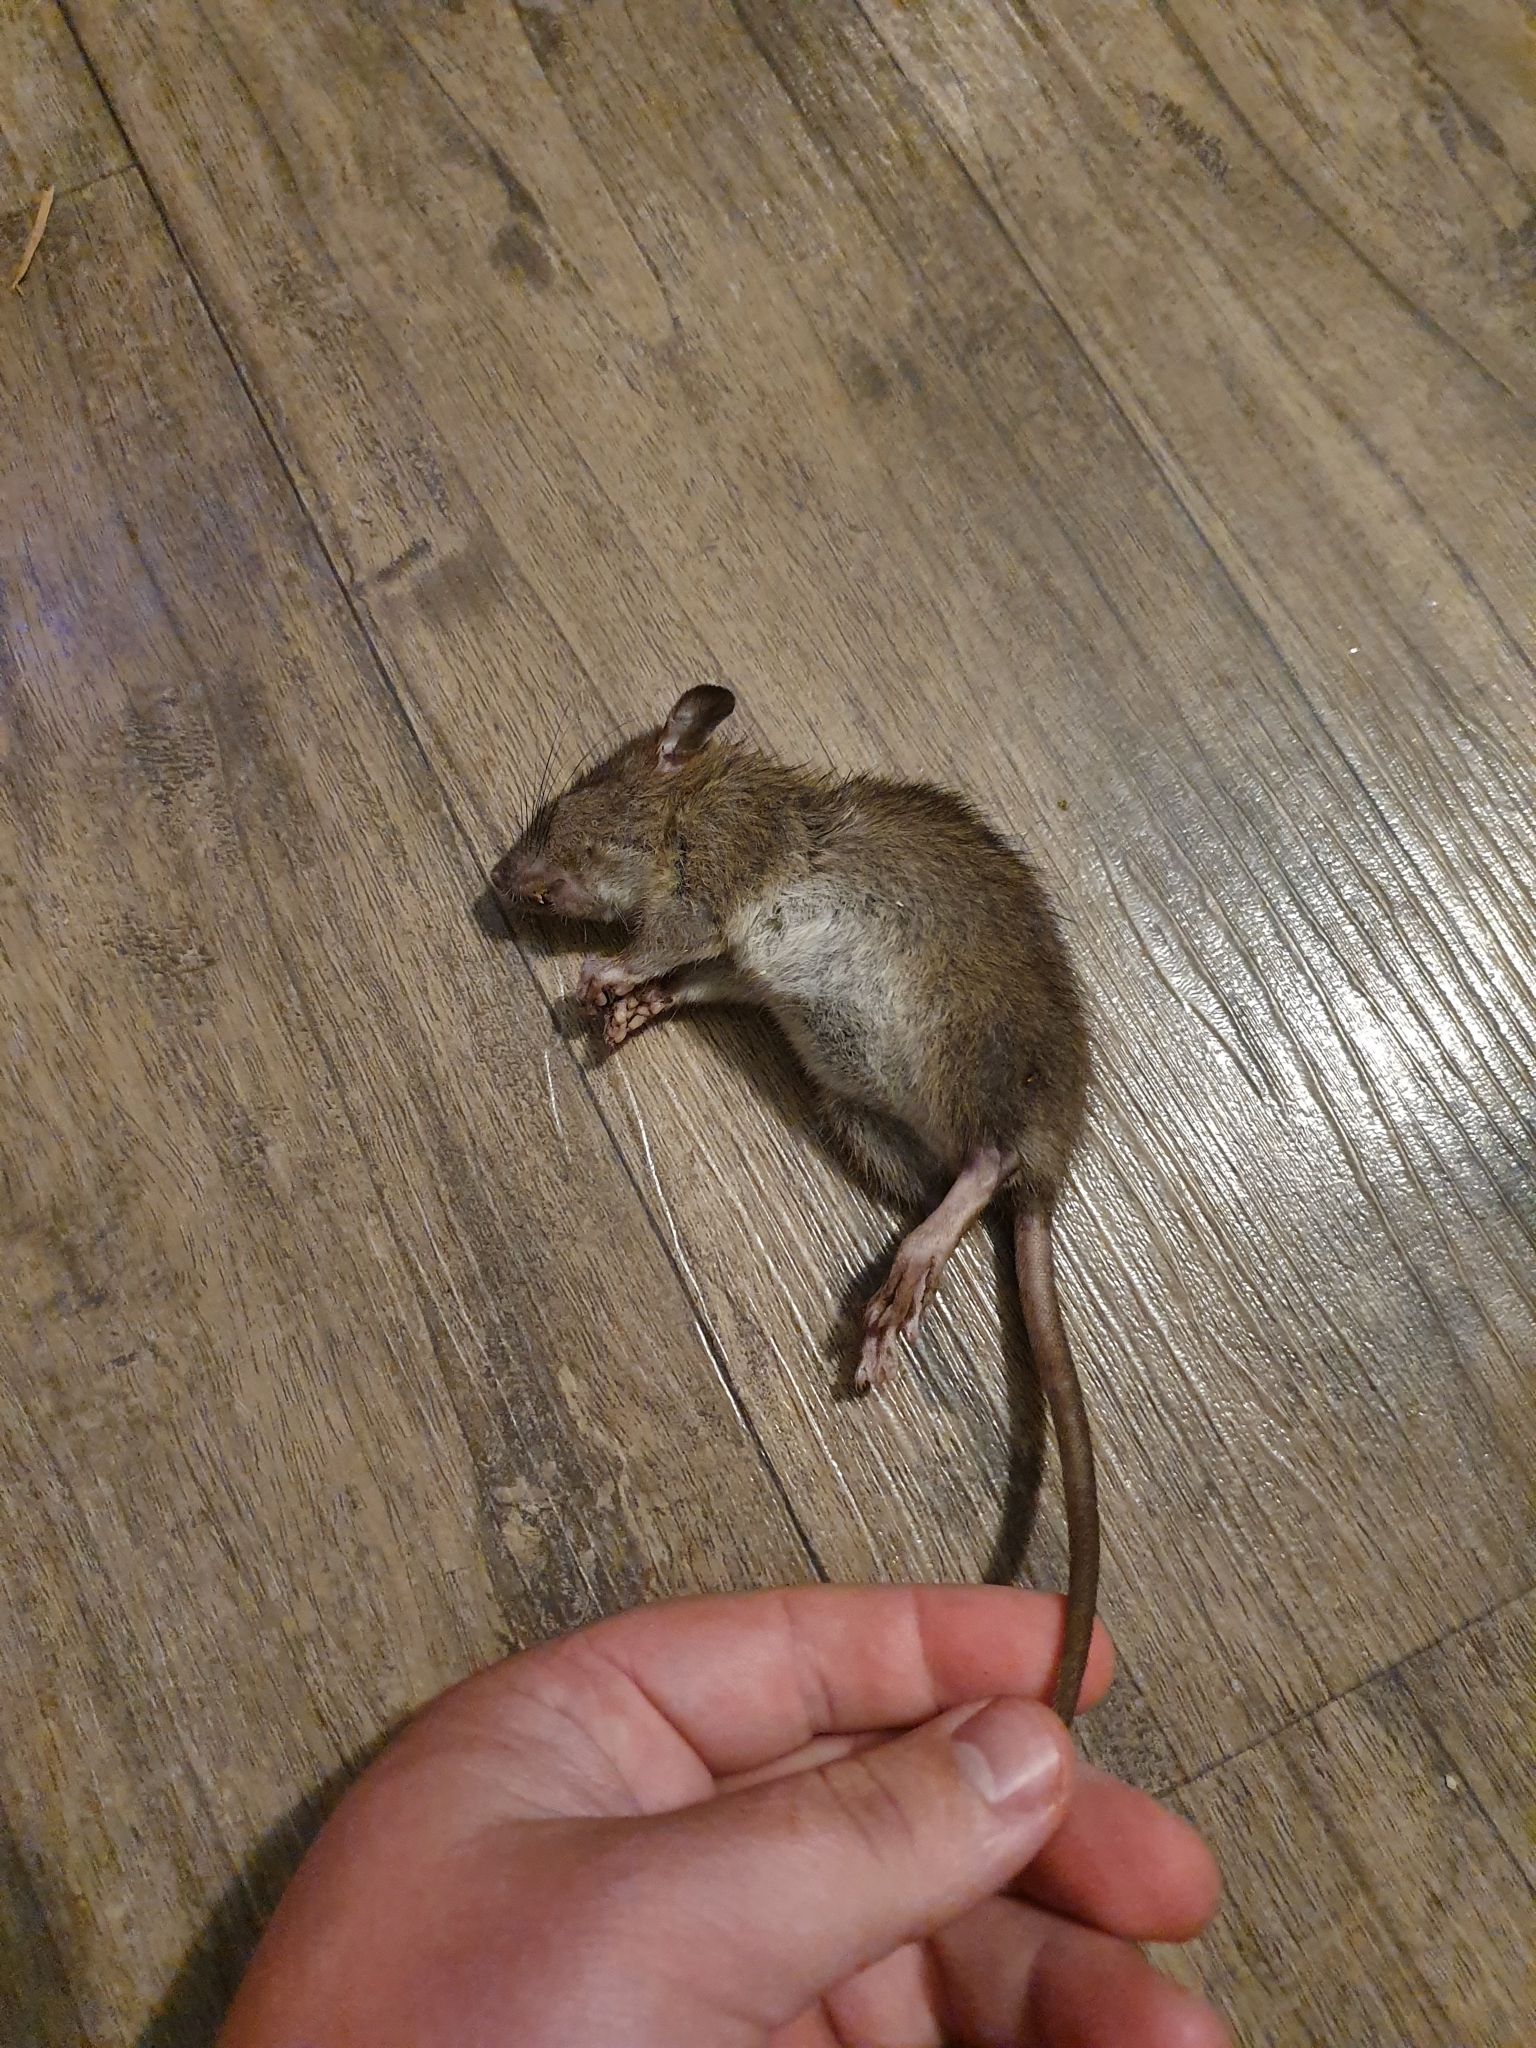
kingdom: Animalia
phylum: Chordata
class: Mammalia
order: Rodentia
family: Muridae
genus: Rattus
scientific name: Rattus norvegicus
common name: Brown rat
